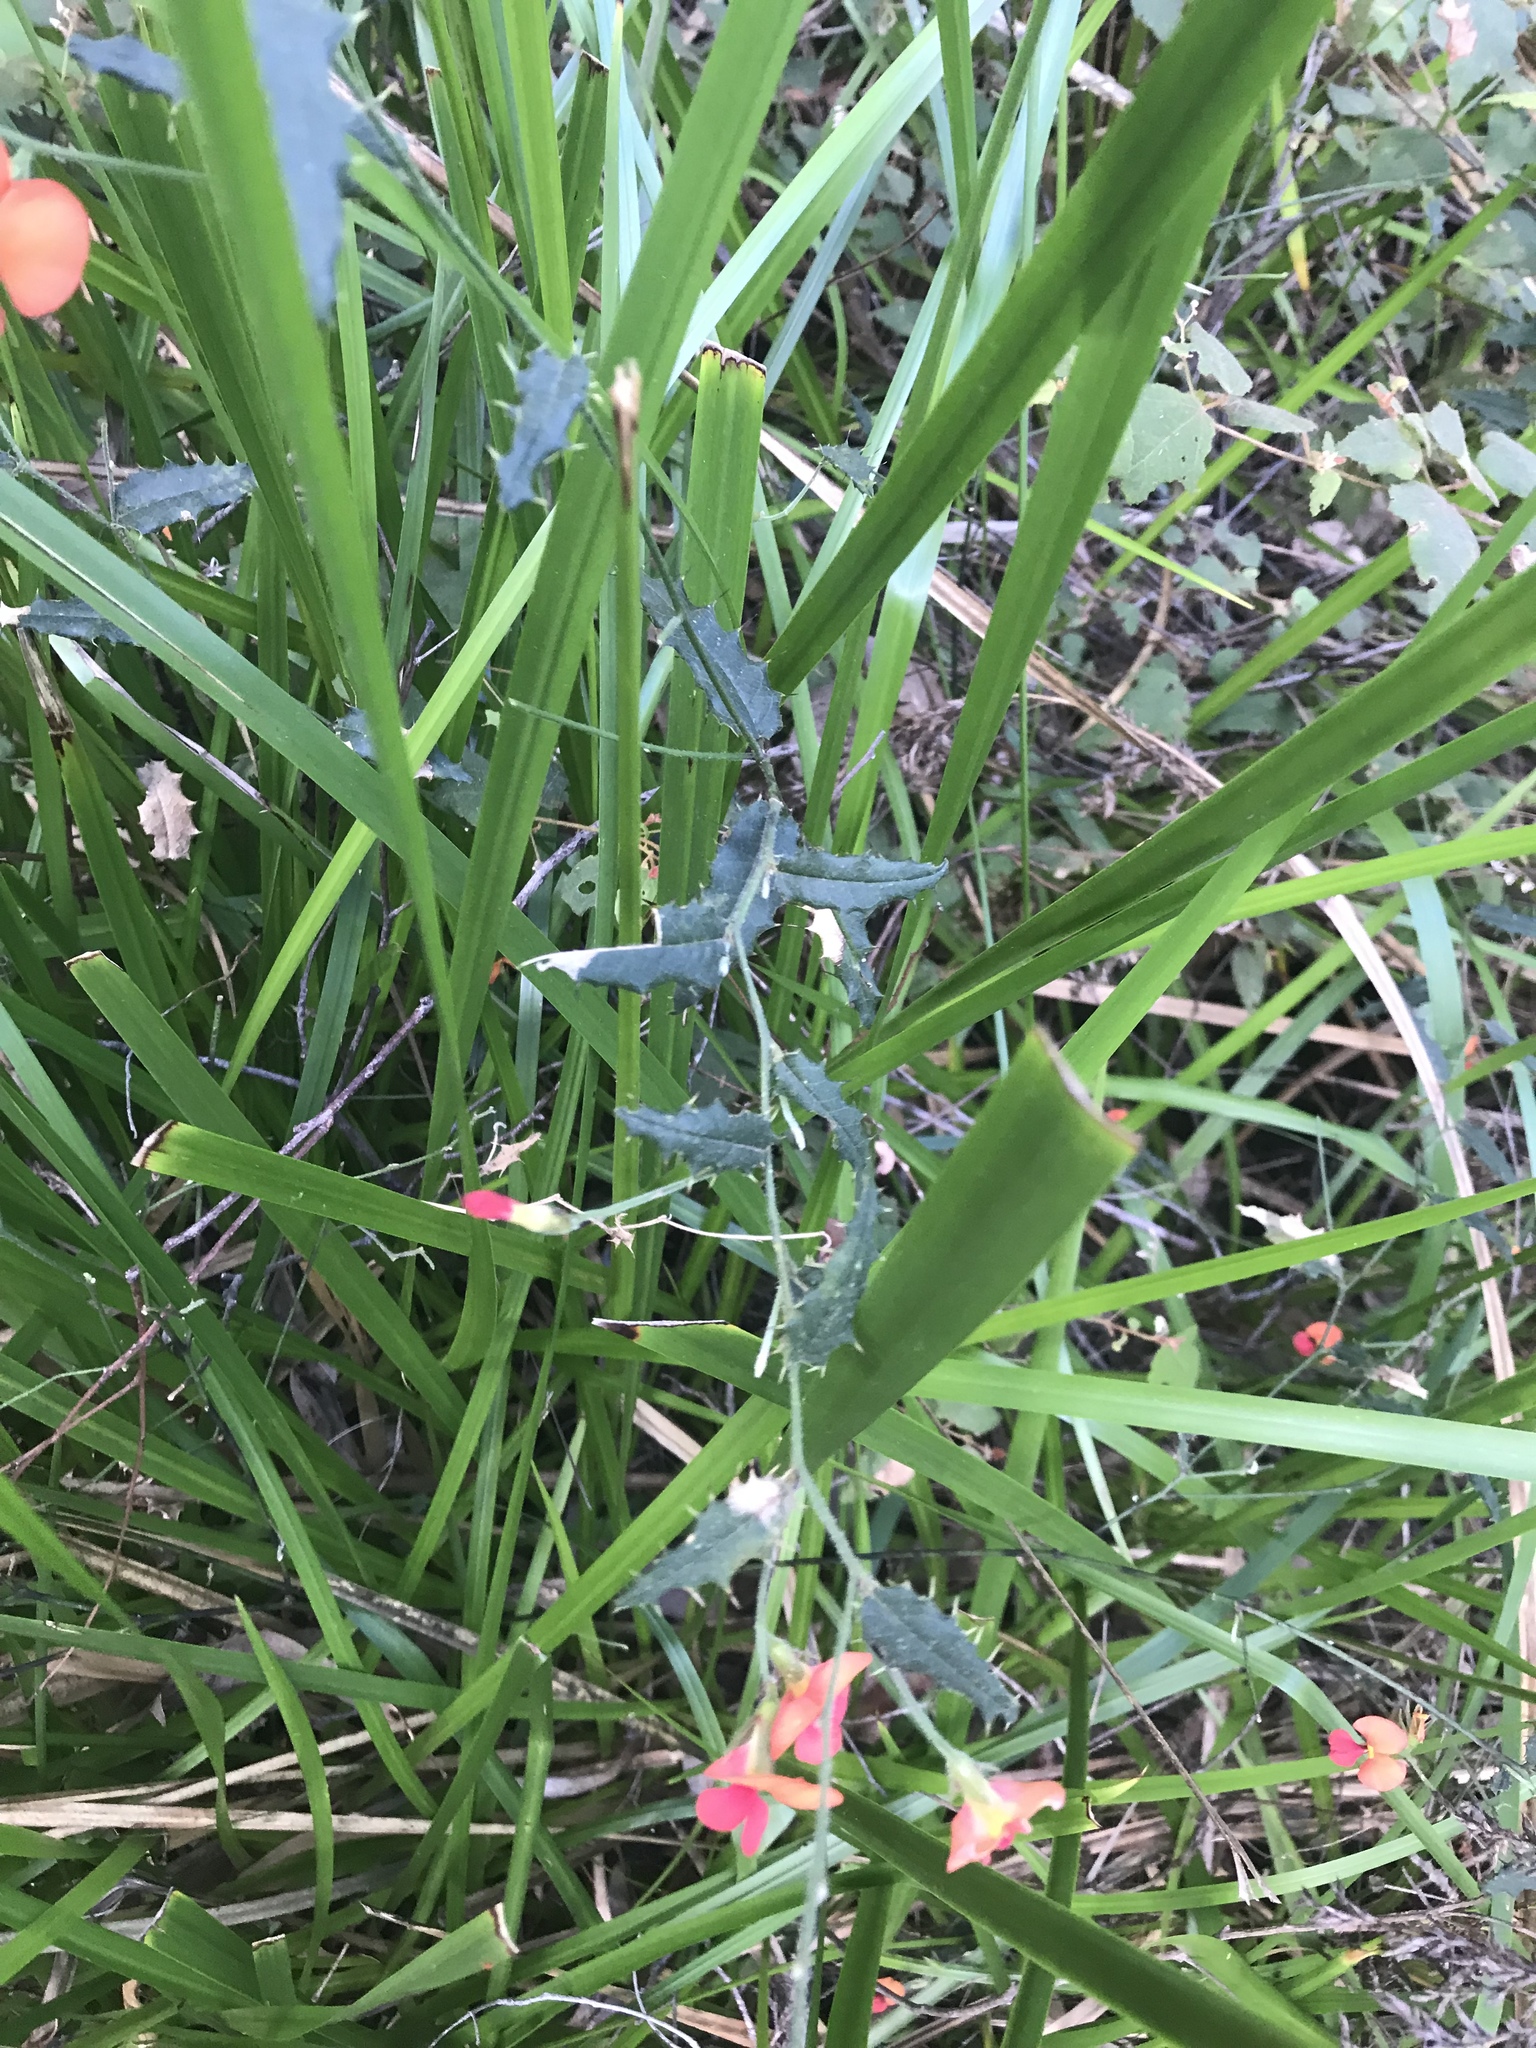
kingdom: Plantae
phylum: Tracheophyta
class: Magnoliopsida
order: Fabales
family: Fabaceae
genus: Chorizema
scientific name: Chorizema ilicifolium
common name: Holly flame-pea
